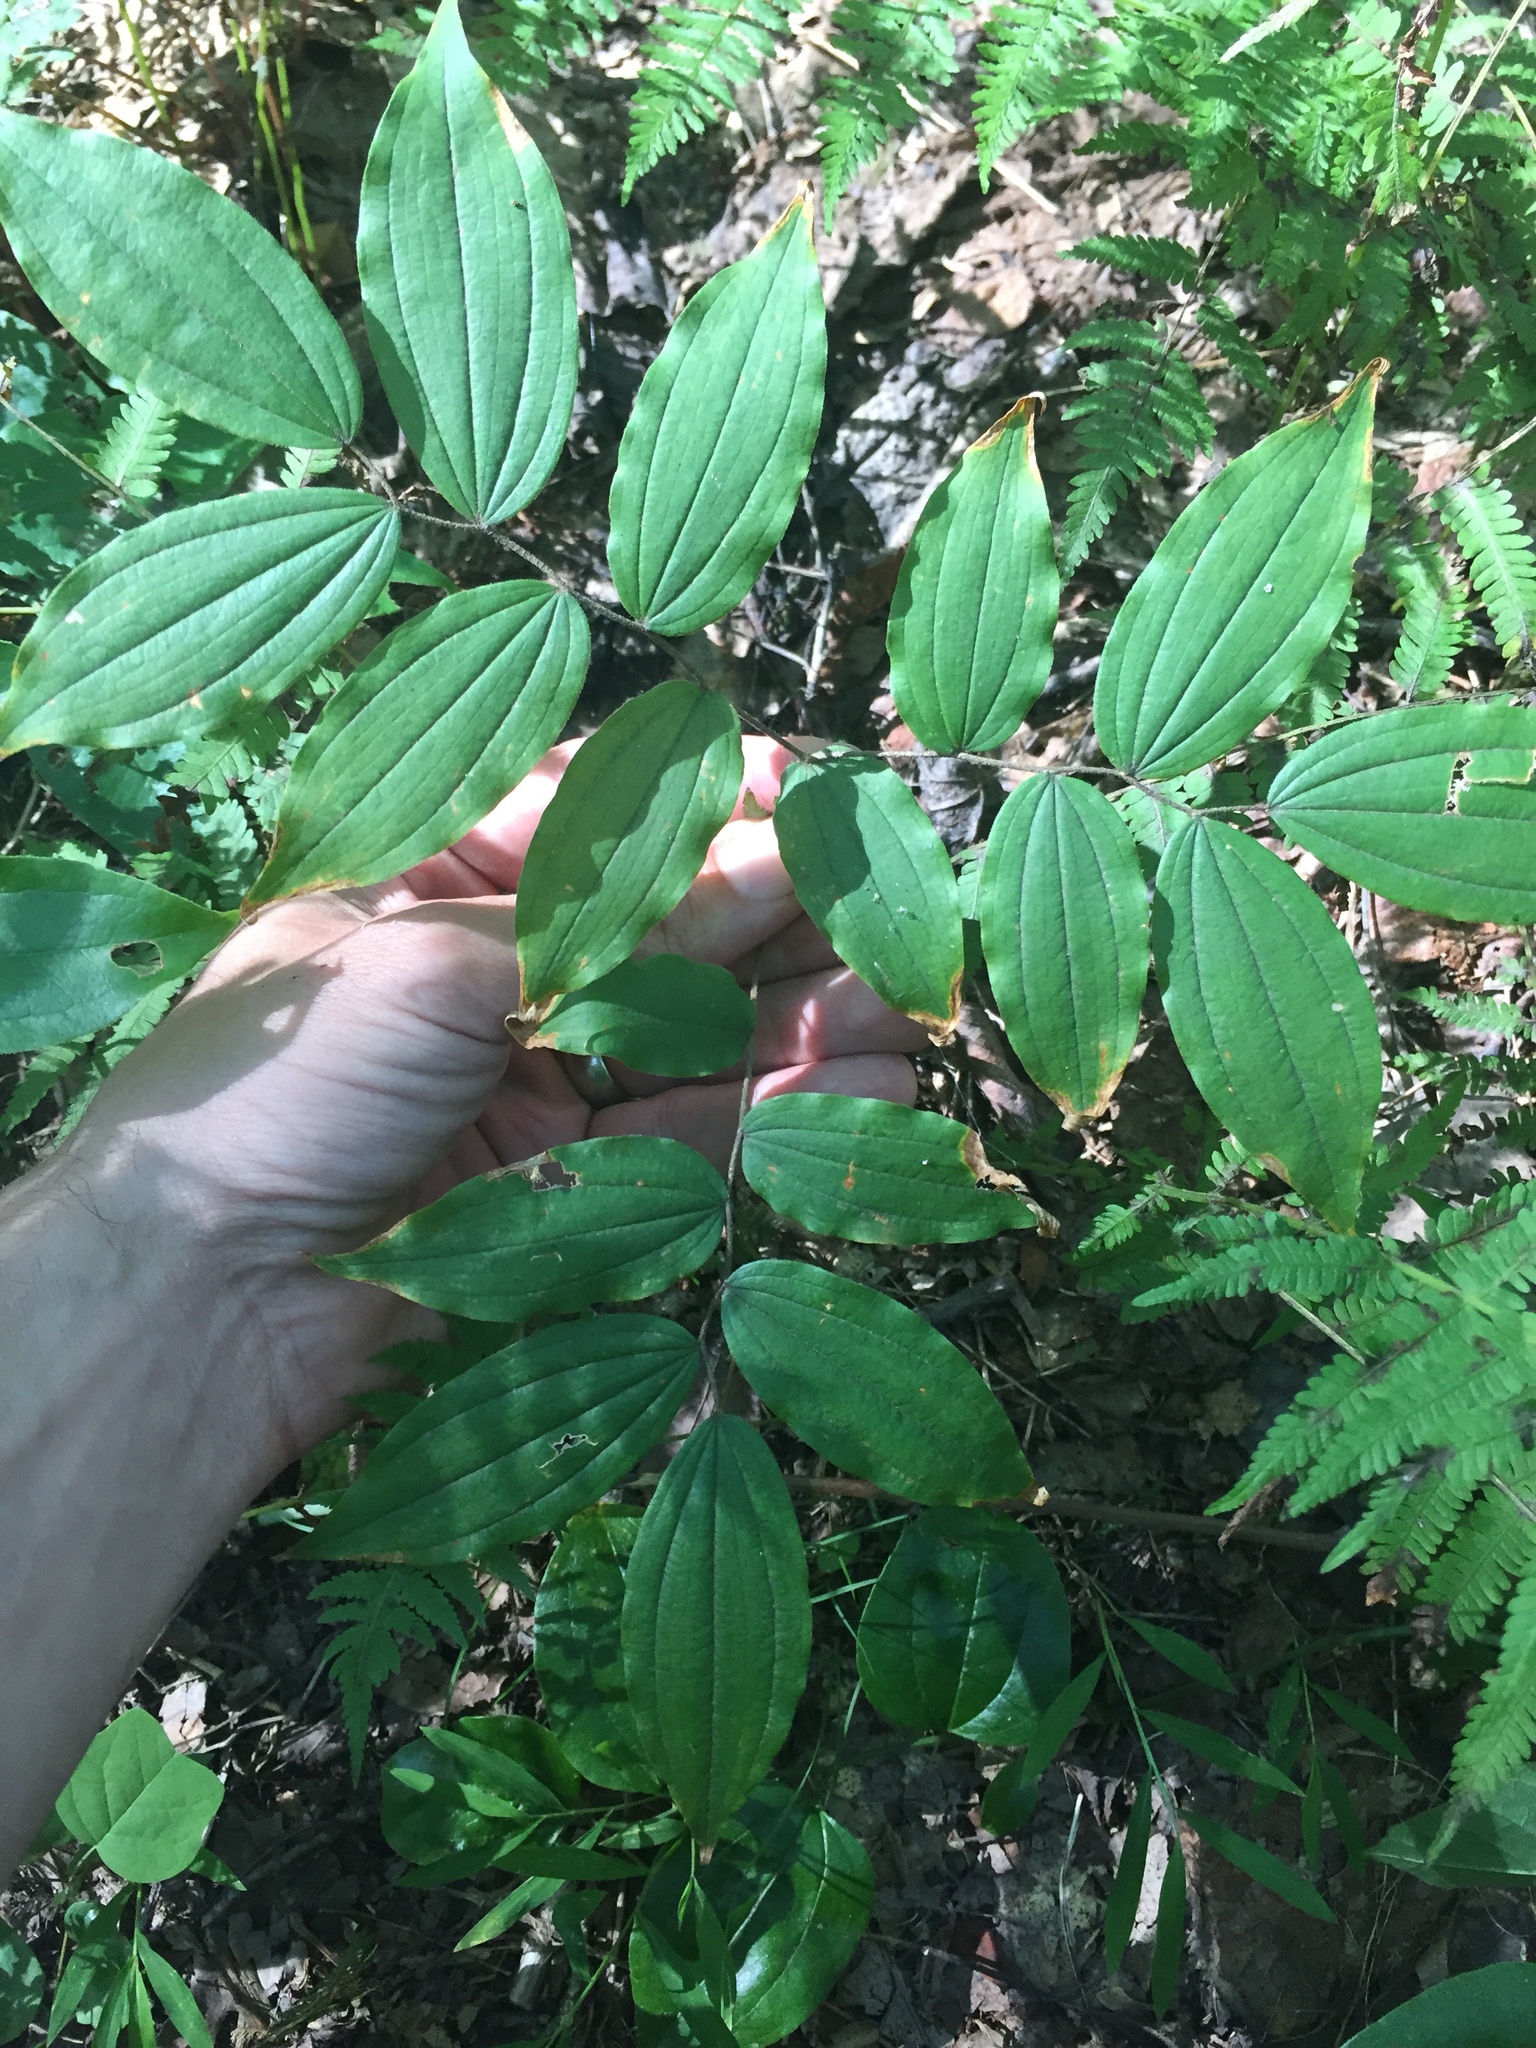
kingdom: Plantae
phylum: Tracheophyta
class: Liliopsida
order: Liliales
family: Liliaceae
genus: Prosartes
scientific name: Prosartes lanuginosa
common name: Hairy mandarin
